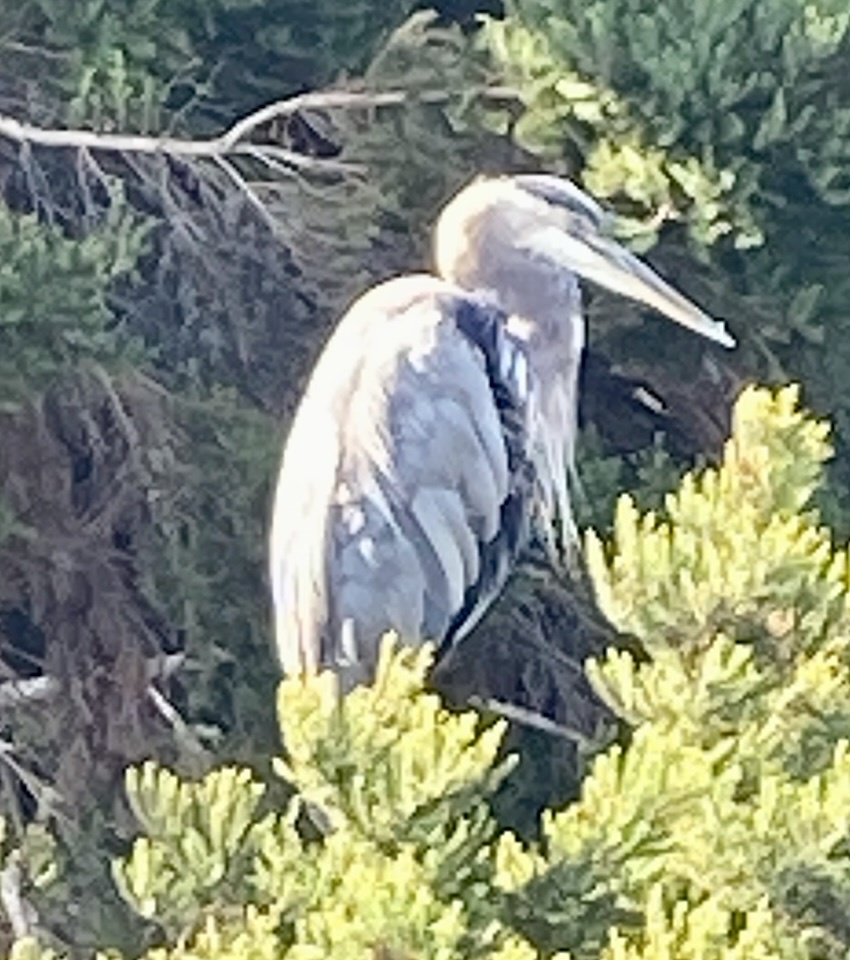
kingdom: Animalia
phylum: Chordata
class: Aves
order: Pelecaniformes
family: Ardeidae
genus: Ardea
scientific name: Ardea herodias
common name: Great blue heron
